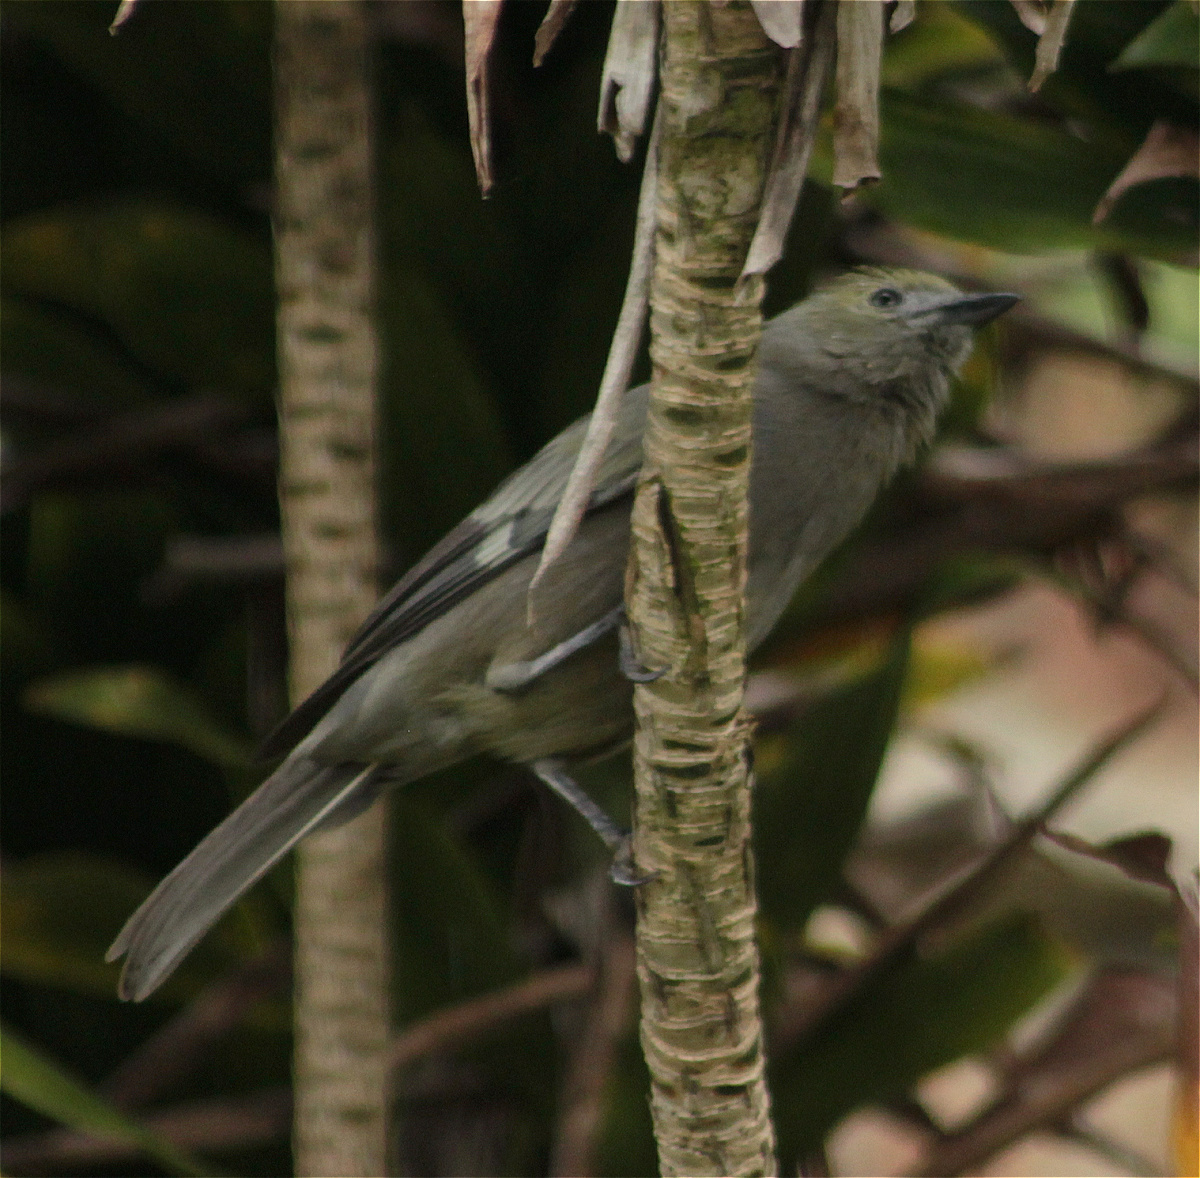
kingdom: Animalia
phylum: Chordata
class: Aves
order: Passeriformes
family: Thraupidae
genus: Thraupis
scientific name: Thraupis palmarum
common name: Palm tanager
